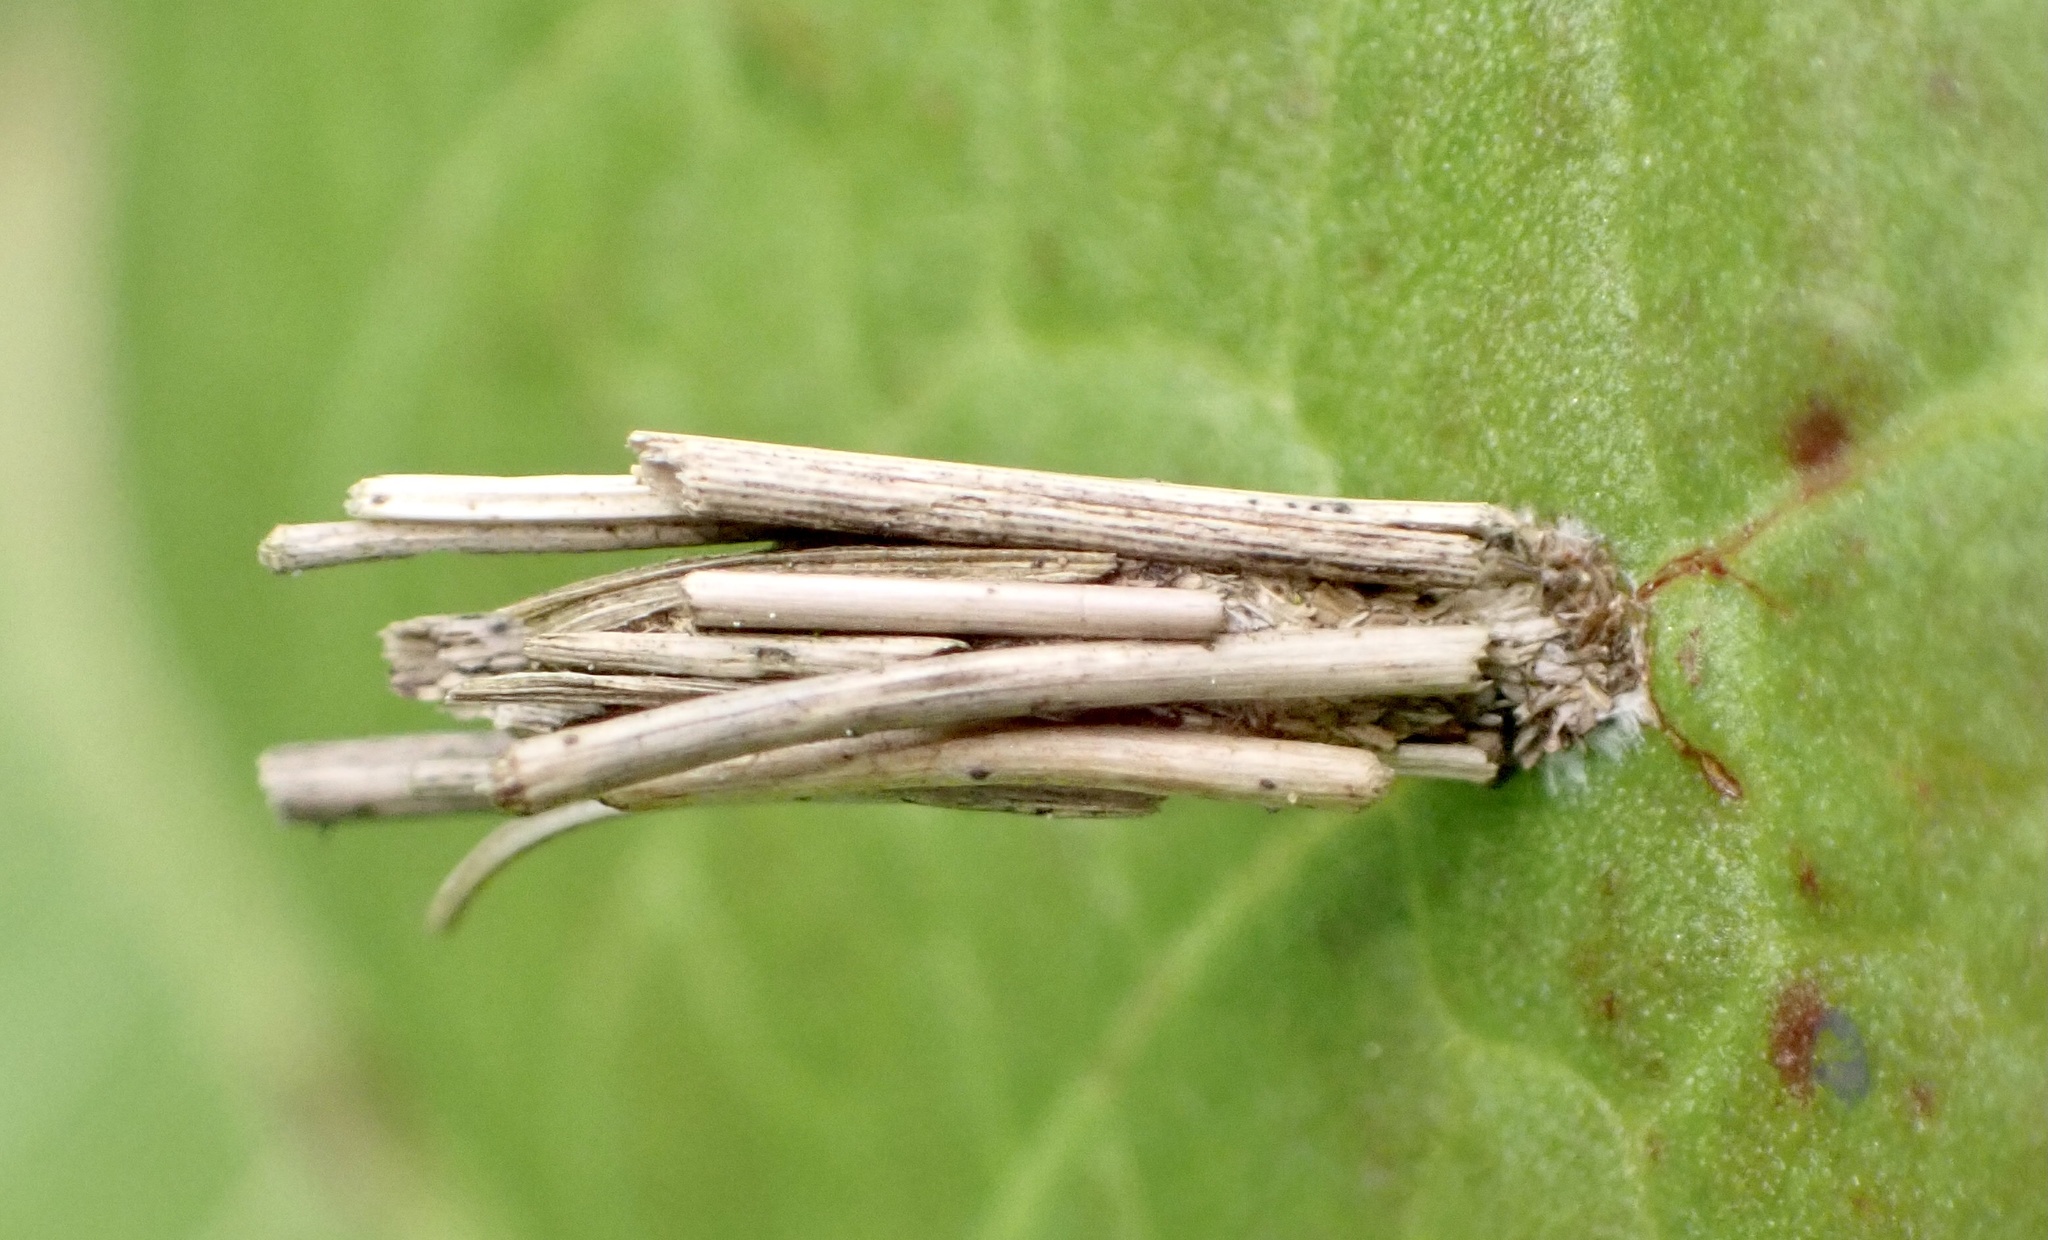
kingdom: Animalia
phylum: Arthropoda
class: Insecta
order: Lepidoptera
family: Psychidae
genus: Psyche
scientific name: Psyche casta
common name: Common sweep
